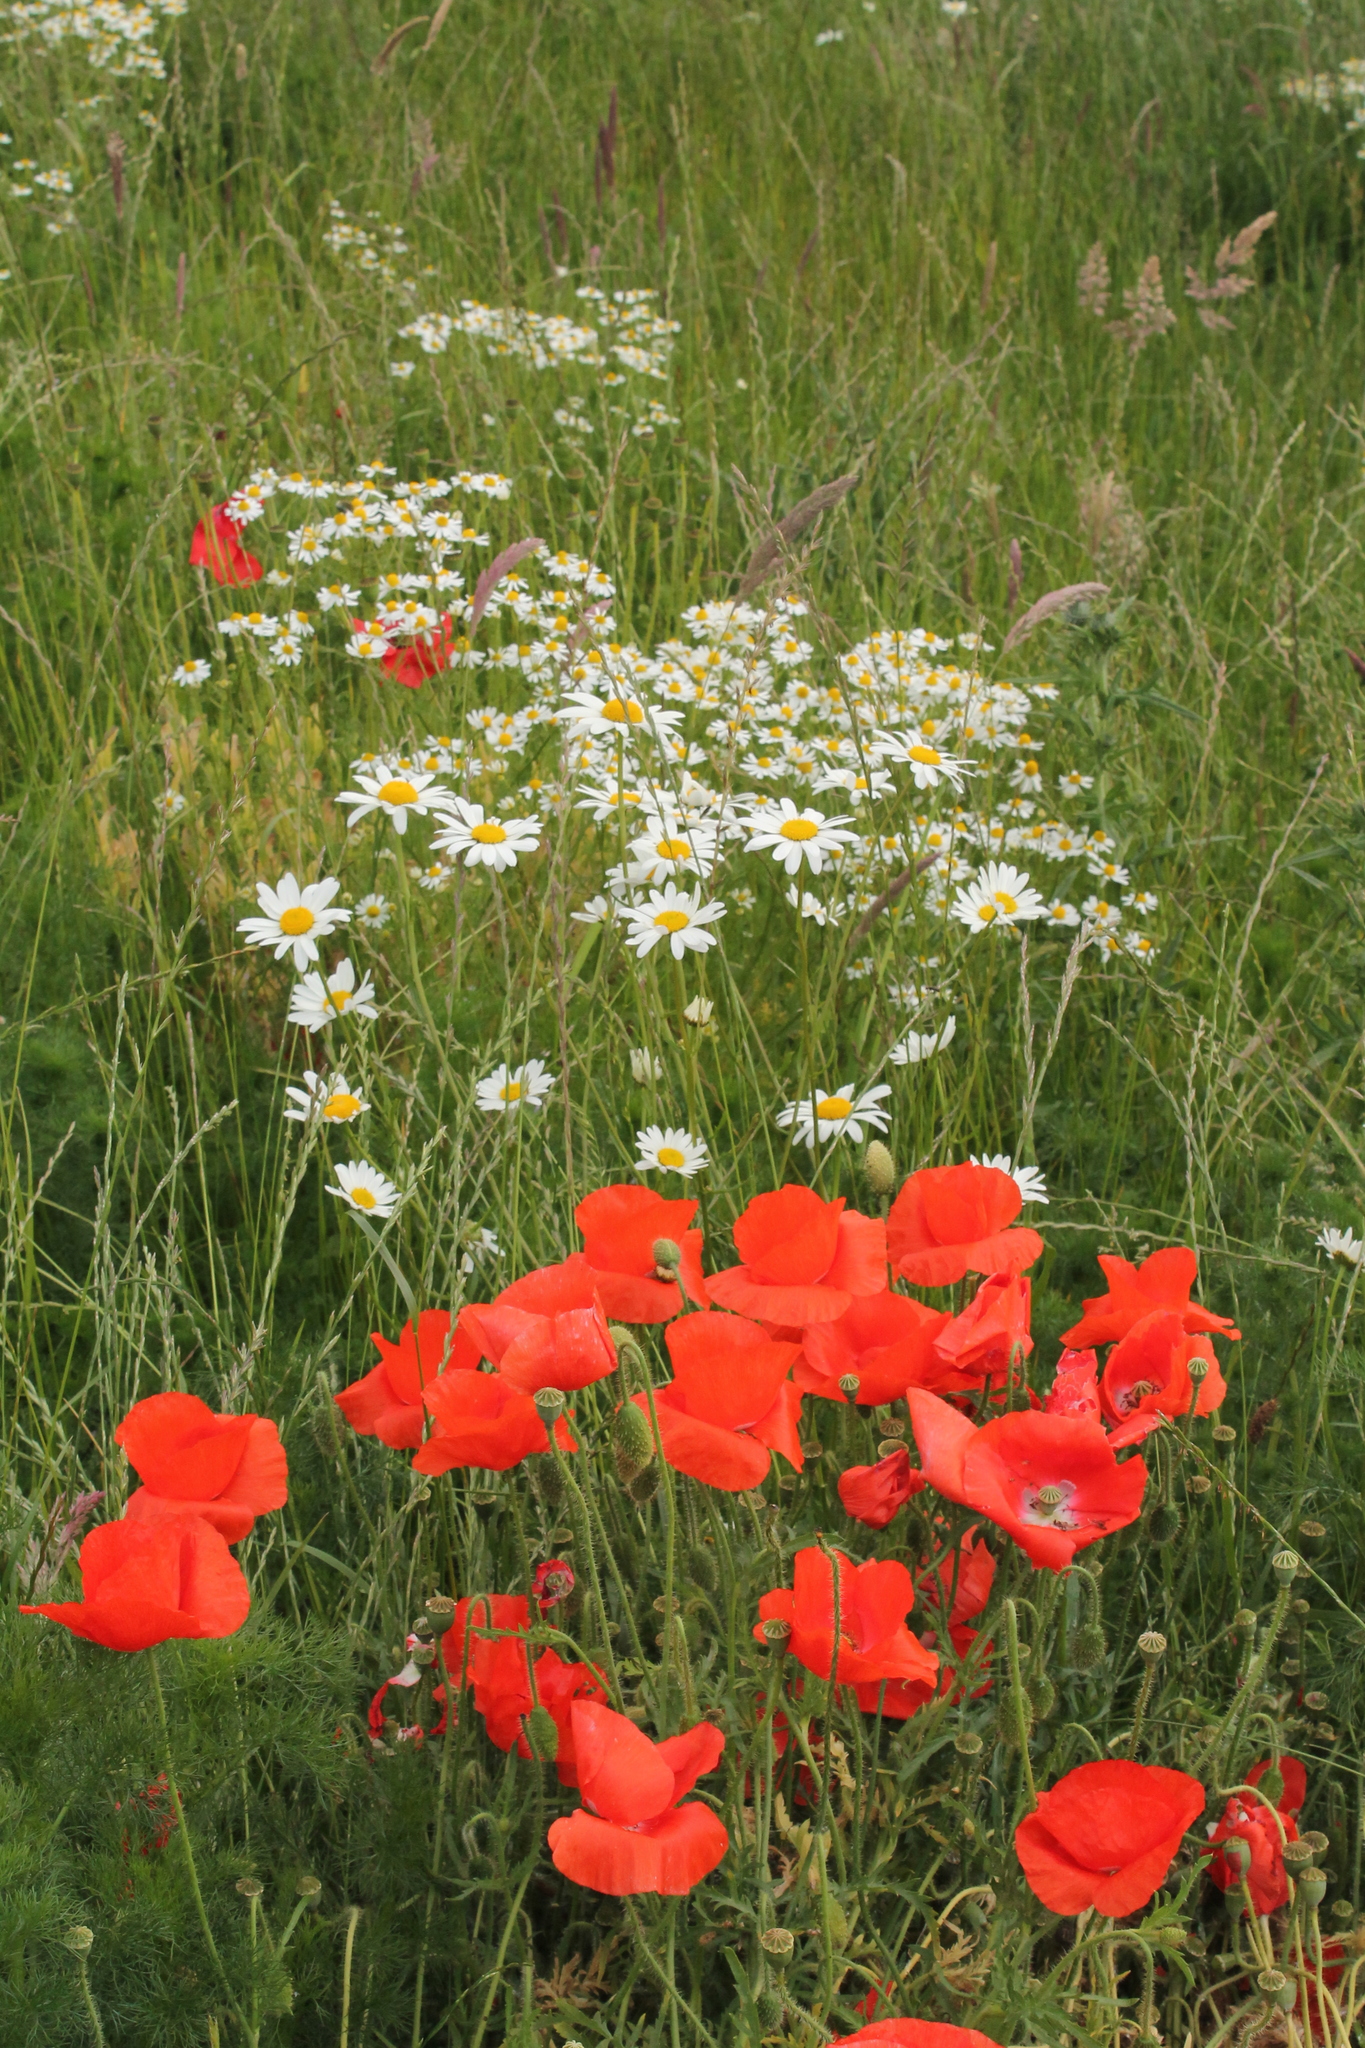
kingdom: Plantae
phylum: Tracheophyta
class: Magnoliopsida
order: Ranunculales
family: Papaveraceae
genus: Papaver
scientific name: Papaver rhoeas
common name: Corn poppy
